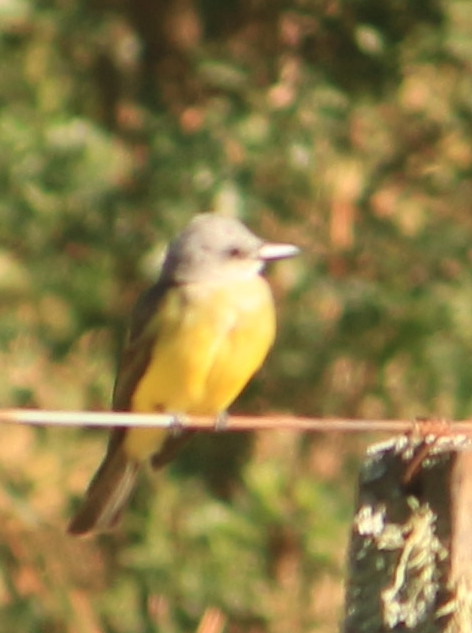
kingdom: Animalia
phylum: Chordata
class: Aves
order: Passeriformes
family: Tyrannidae
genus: Tyrannus
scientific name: Tyrannus melancholicus
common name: Tropical kingbird
